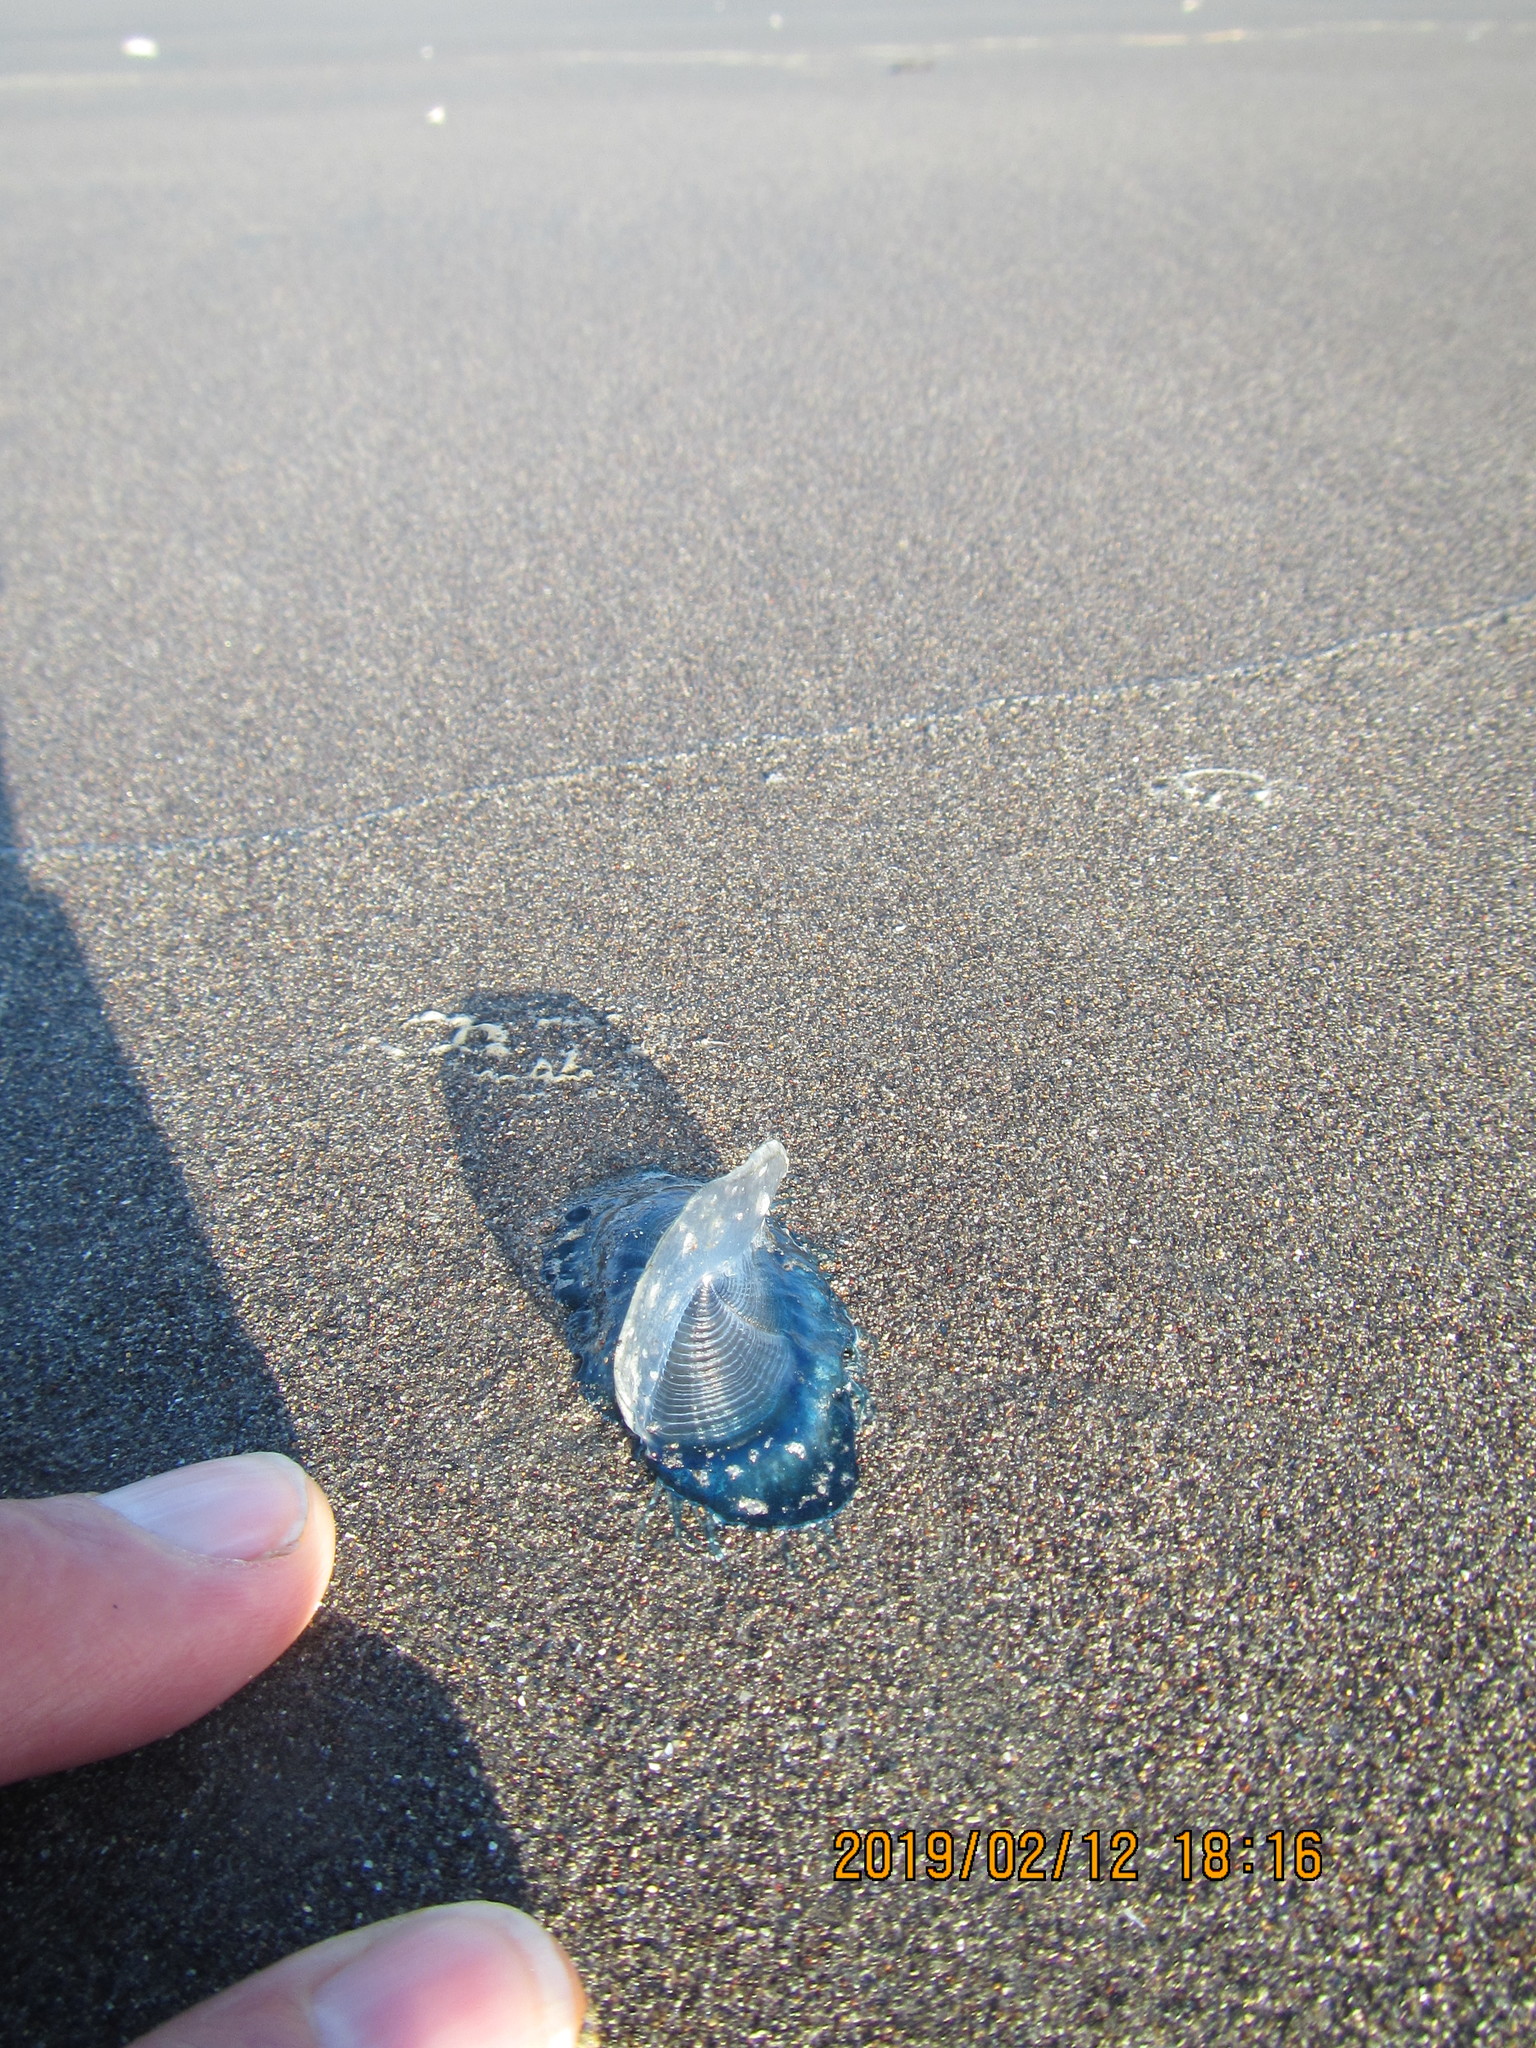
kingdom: Animalia
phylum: Cnidaria
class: Hydrozoa
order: Anthoathecata
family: Porpitidae
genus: Velella
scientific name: Velella velella
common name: By-the-wind-sailor
